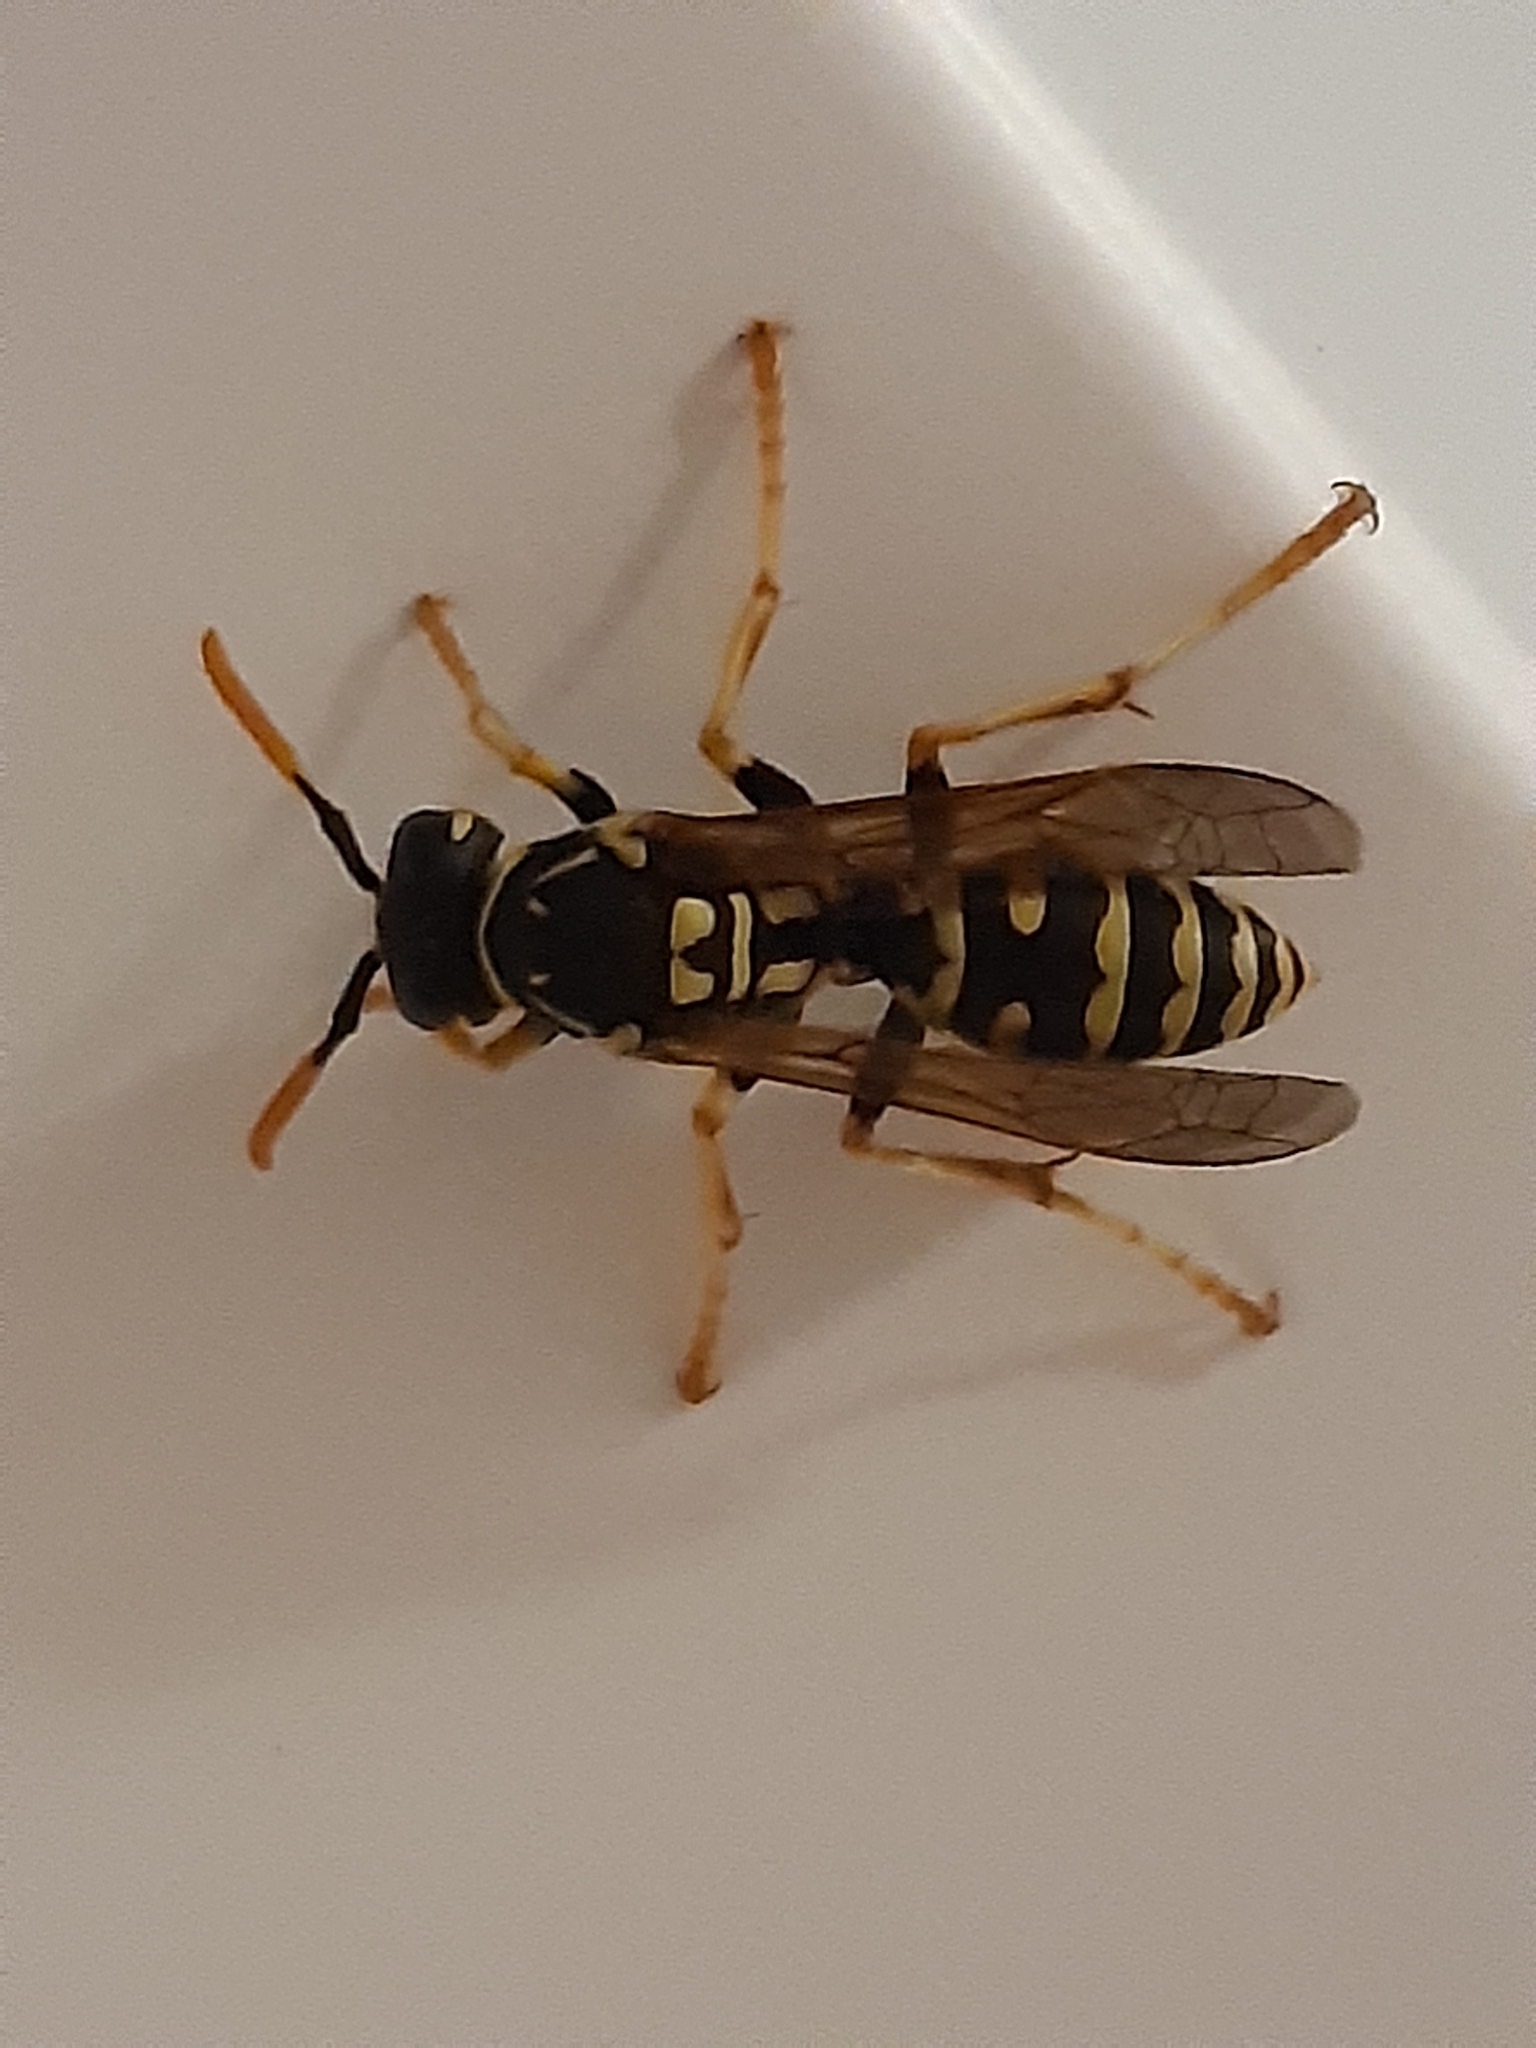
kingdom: Animalia
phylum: Arthropoda
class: Insecta
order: Hymenoptera
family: Eumenidae
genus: Polistes
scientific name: Polistes dominula
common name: Paper wasp
